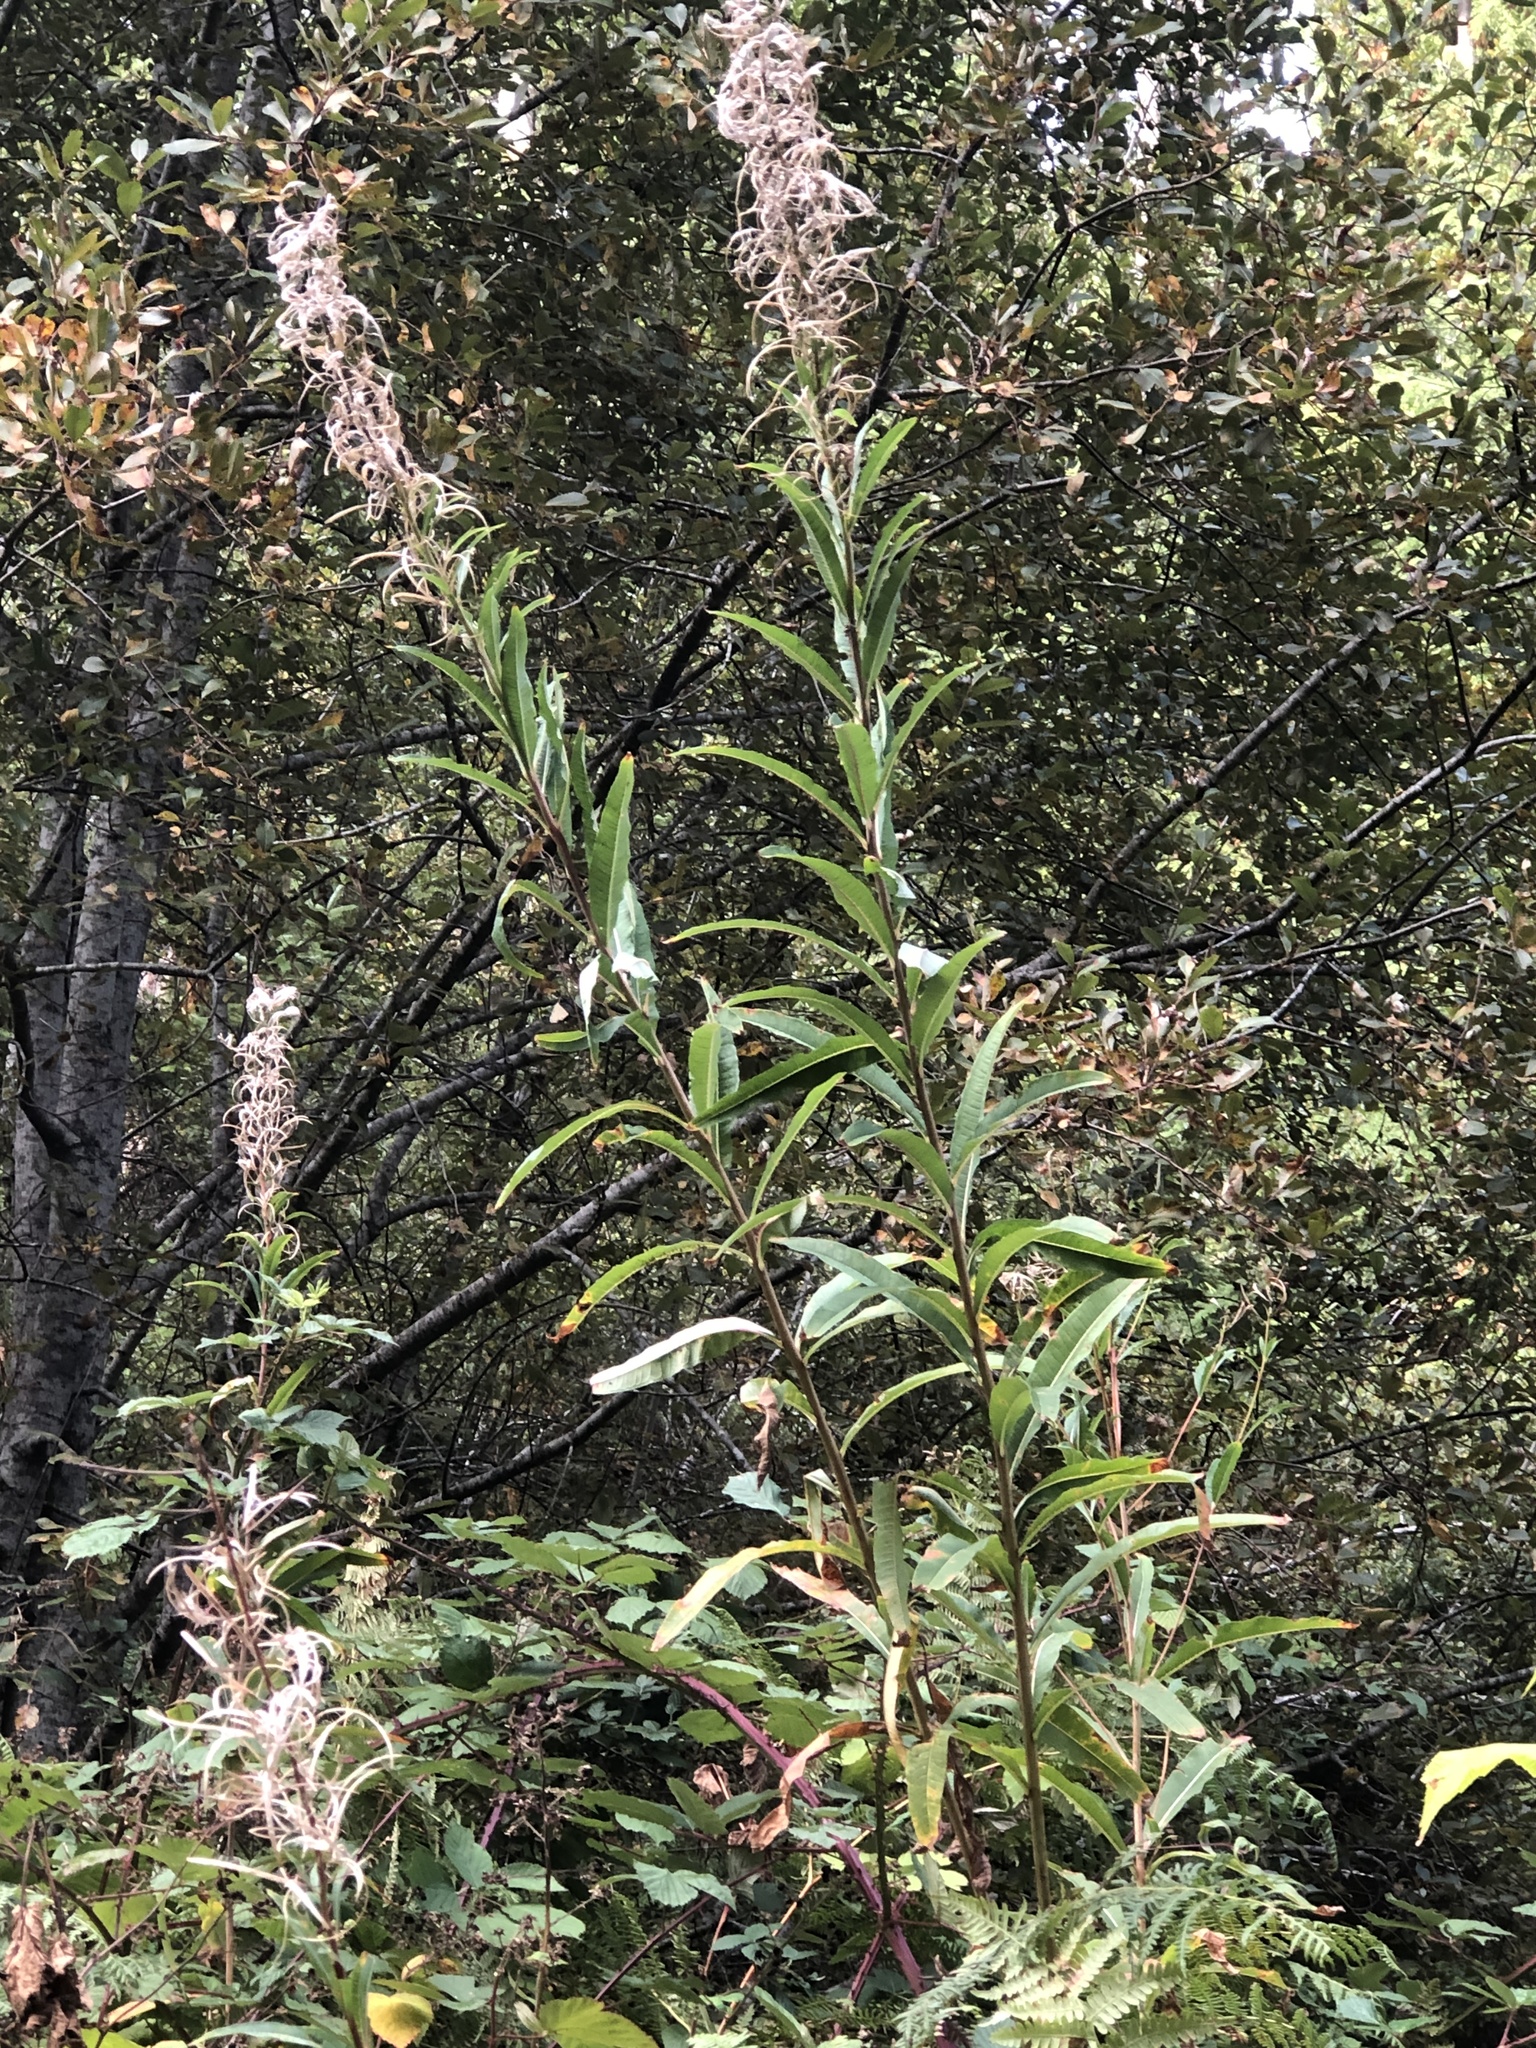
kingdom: Plantae
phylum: Tracheophyta
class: Magnoliopsida
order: Myrtales
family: Onagraceae
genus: Chamaenerion
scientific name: Chamaenerion angustifolium
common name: Fireweed
